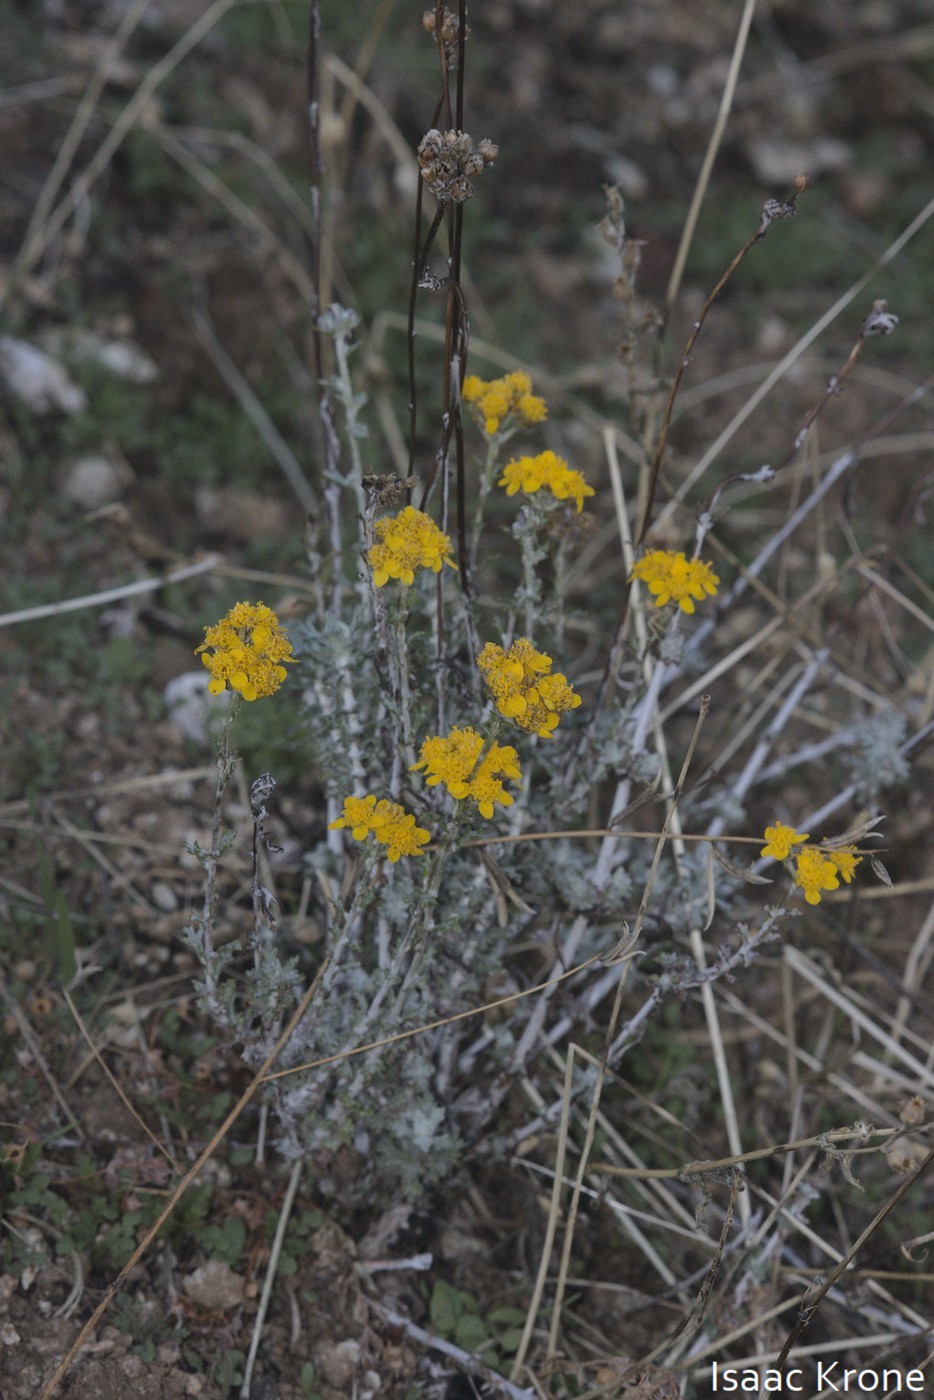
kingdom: Plantae
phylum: Tracheophyta
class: Magnoliopsida
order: Asterales
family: Asteraceae
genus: Eriophyllum
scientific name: Eriophyllum confertiflorum
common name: Golden-yarrow
